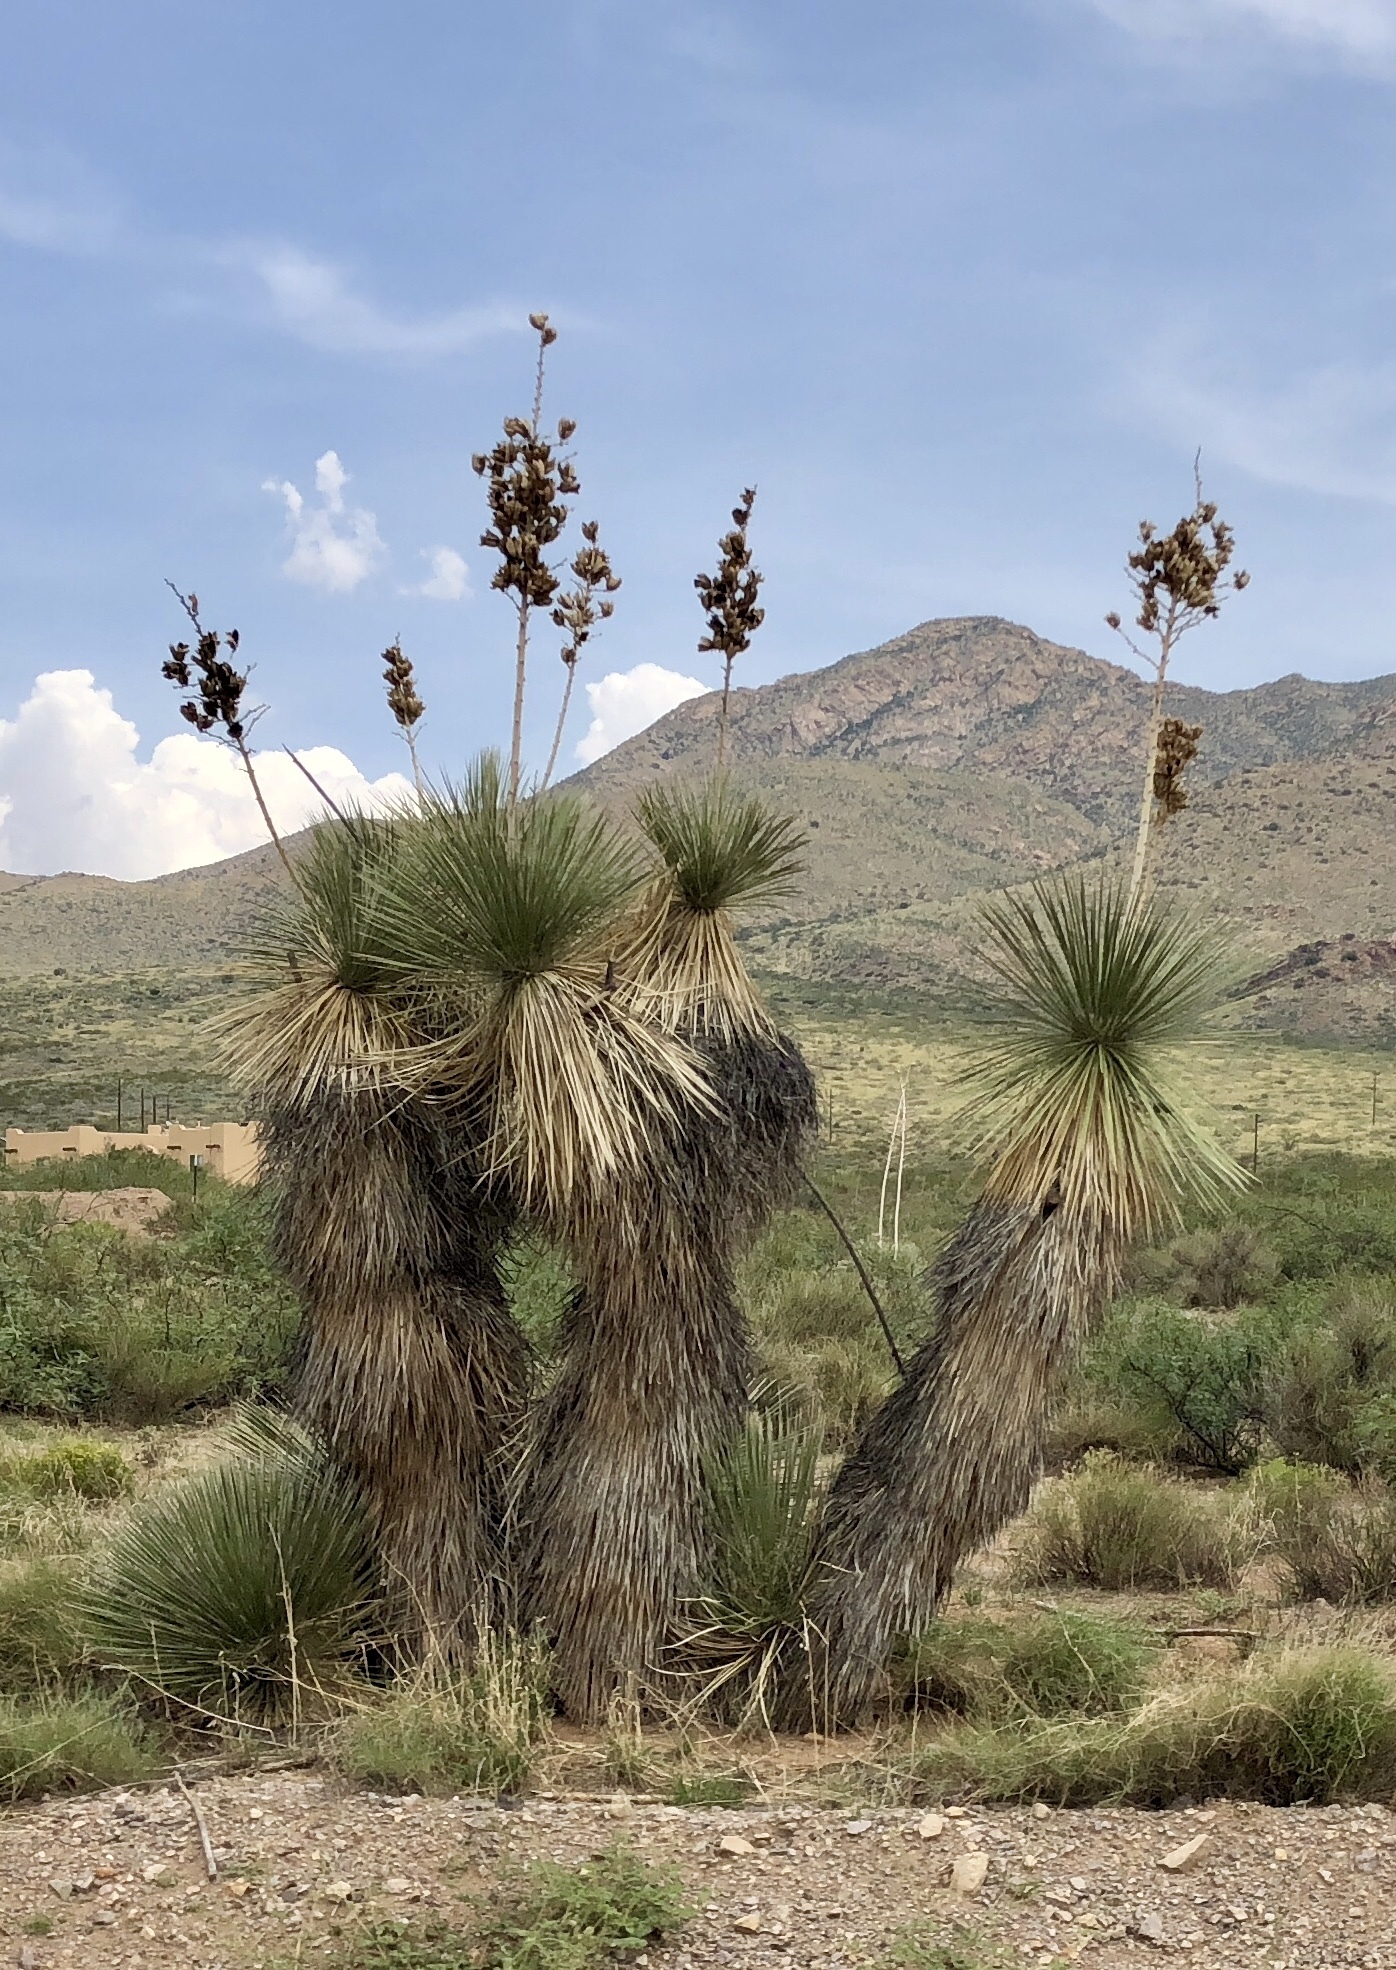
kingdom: Plantae
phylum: Tracheophyta
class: Liliopsida
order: Asparagales
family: Asparagaceae
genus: Yucca
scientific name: Yucca elata
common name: Palmella
